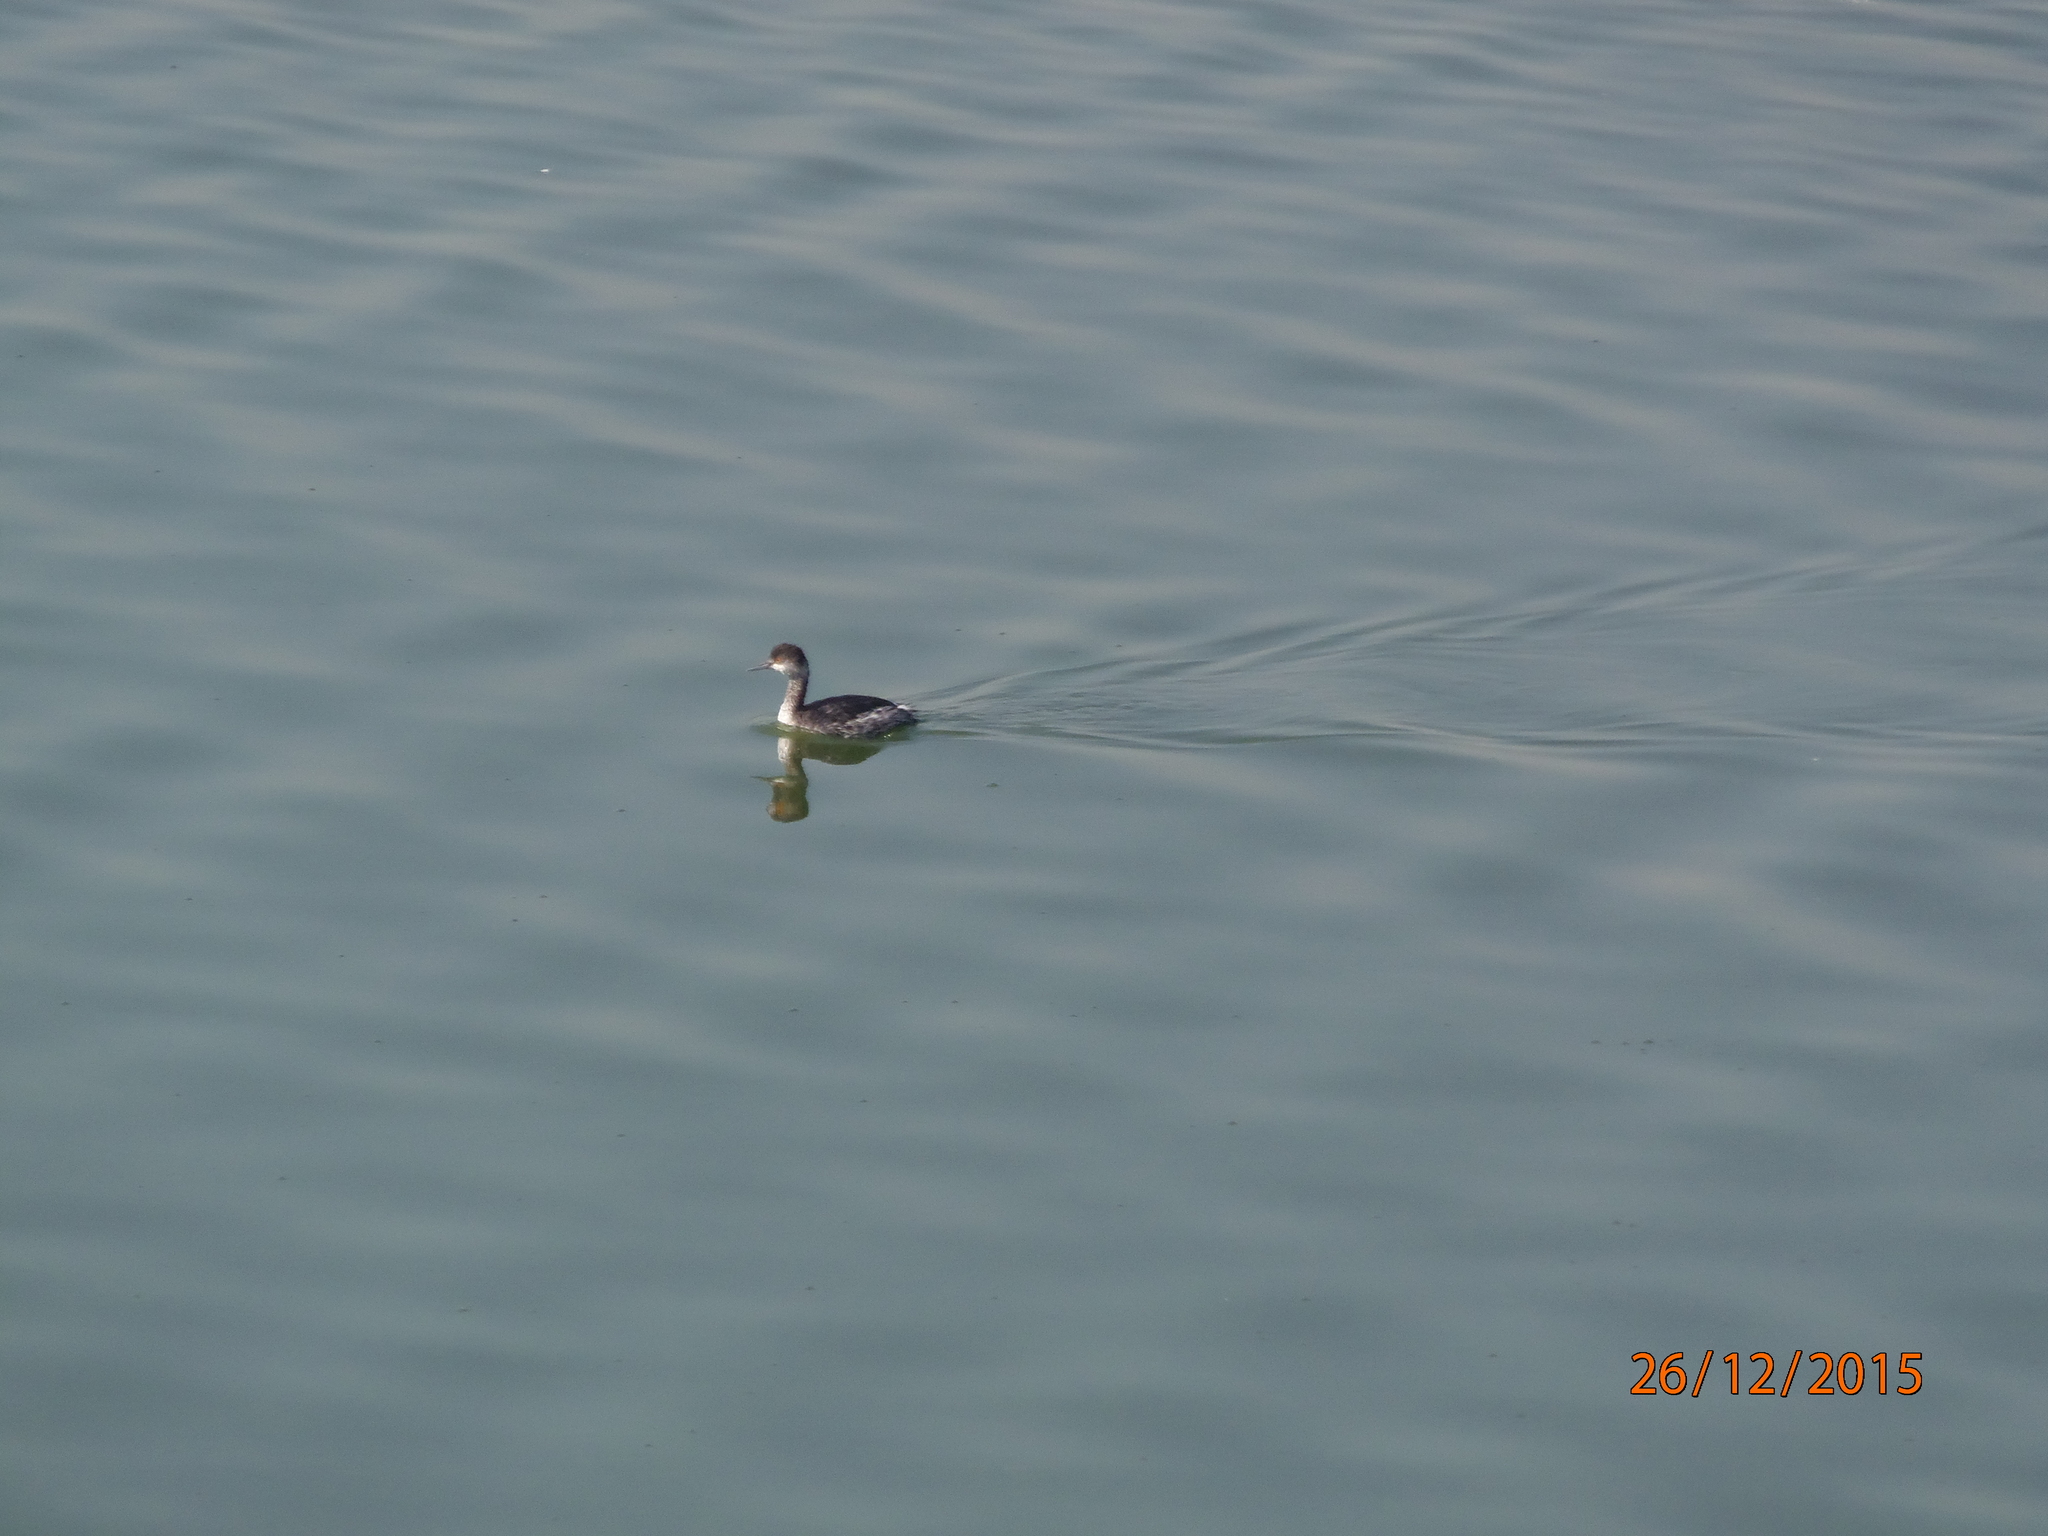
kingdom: Animalia
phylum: Chordata
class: Aves
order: Podicipediformes
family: Podicipedidae
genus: Podiceps
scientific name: Podiceps nigricollis
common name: Black-necked grebe
